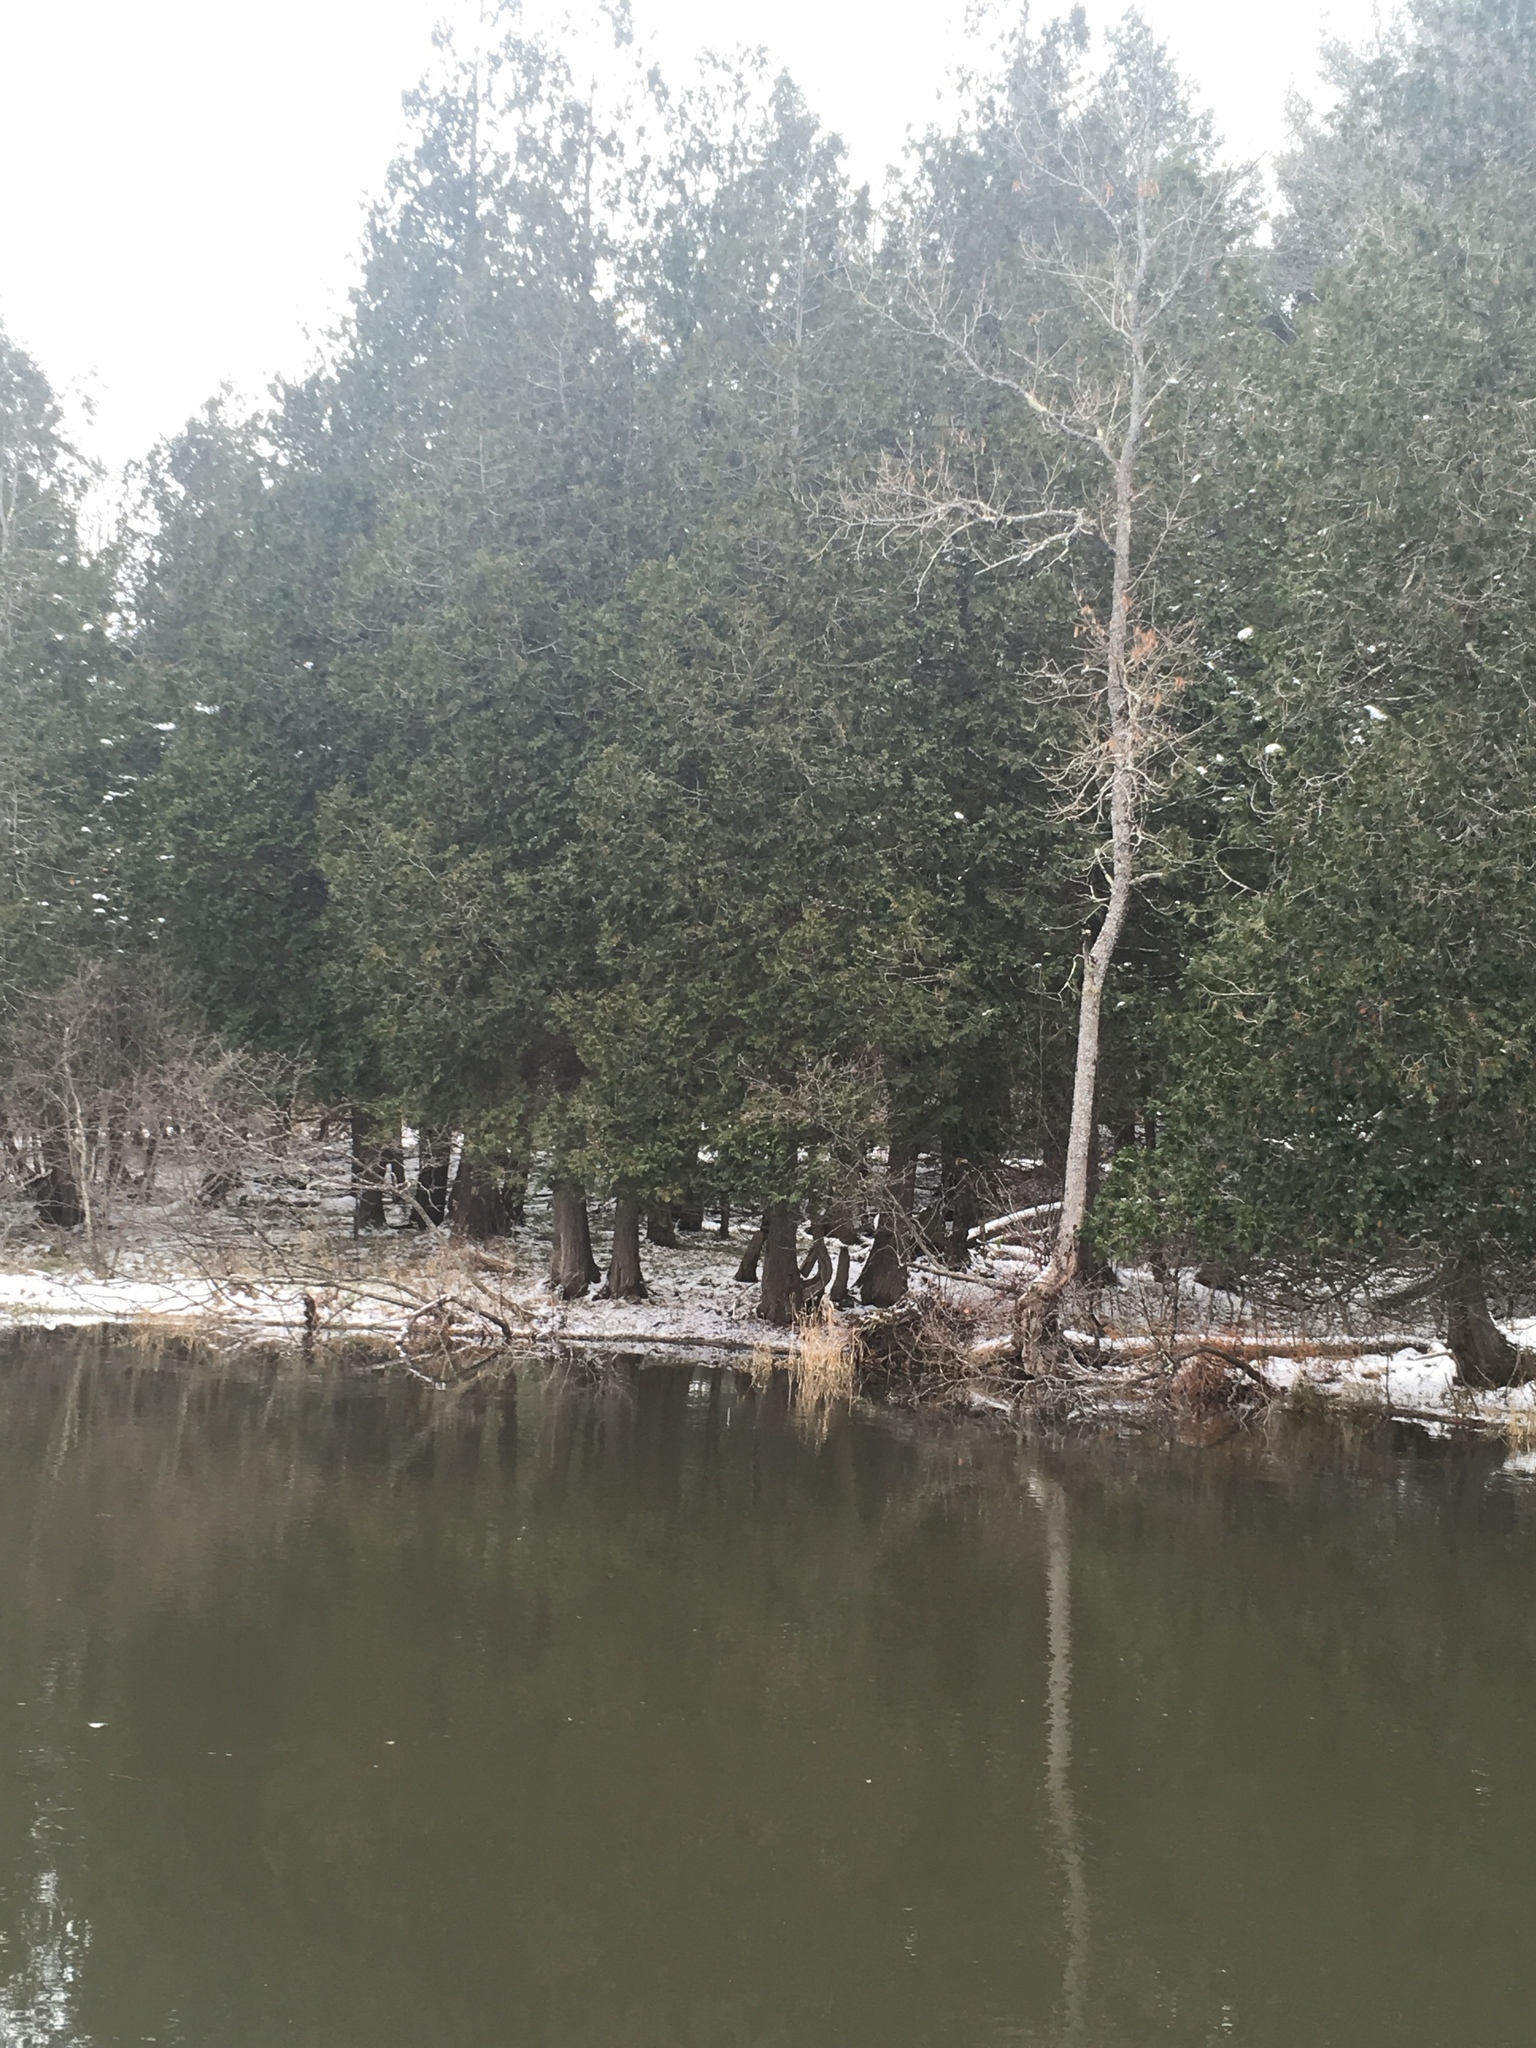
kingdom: Plantae
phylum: Tracheophyta
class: Pinopsida
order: Pinales
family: Cupressaceae
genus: Thuja
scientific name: Thuja occidentalis
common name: Northern white-cedar
